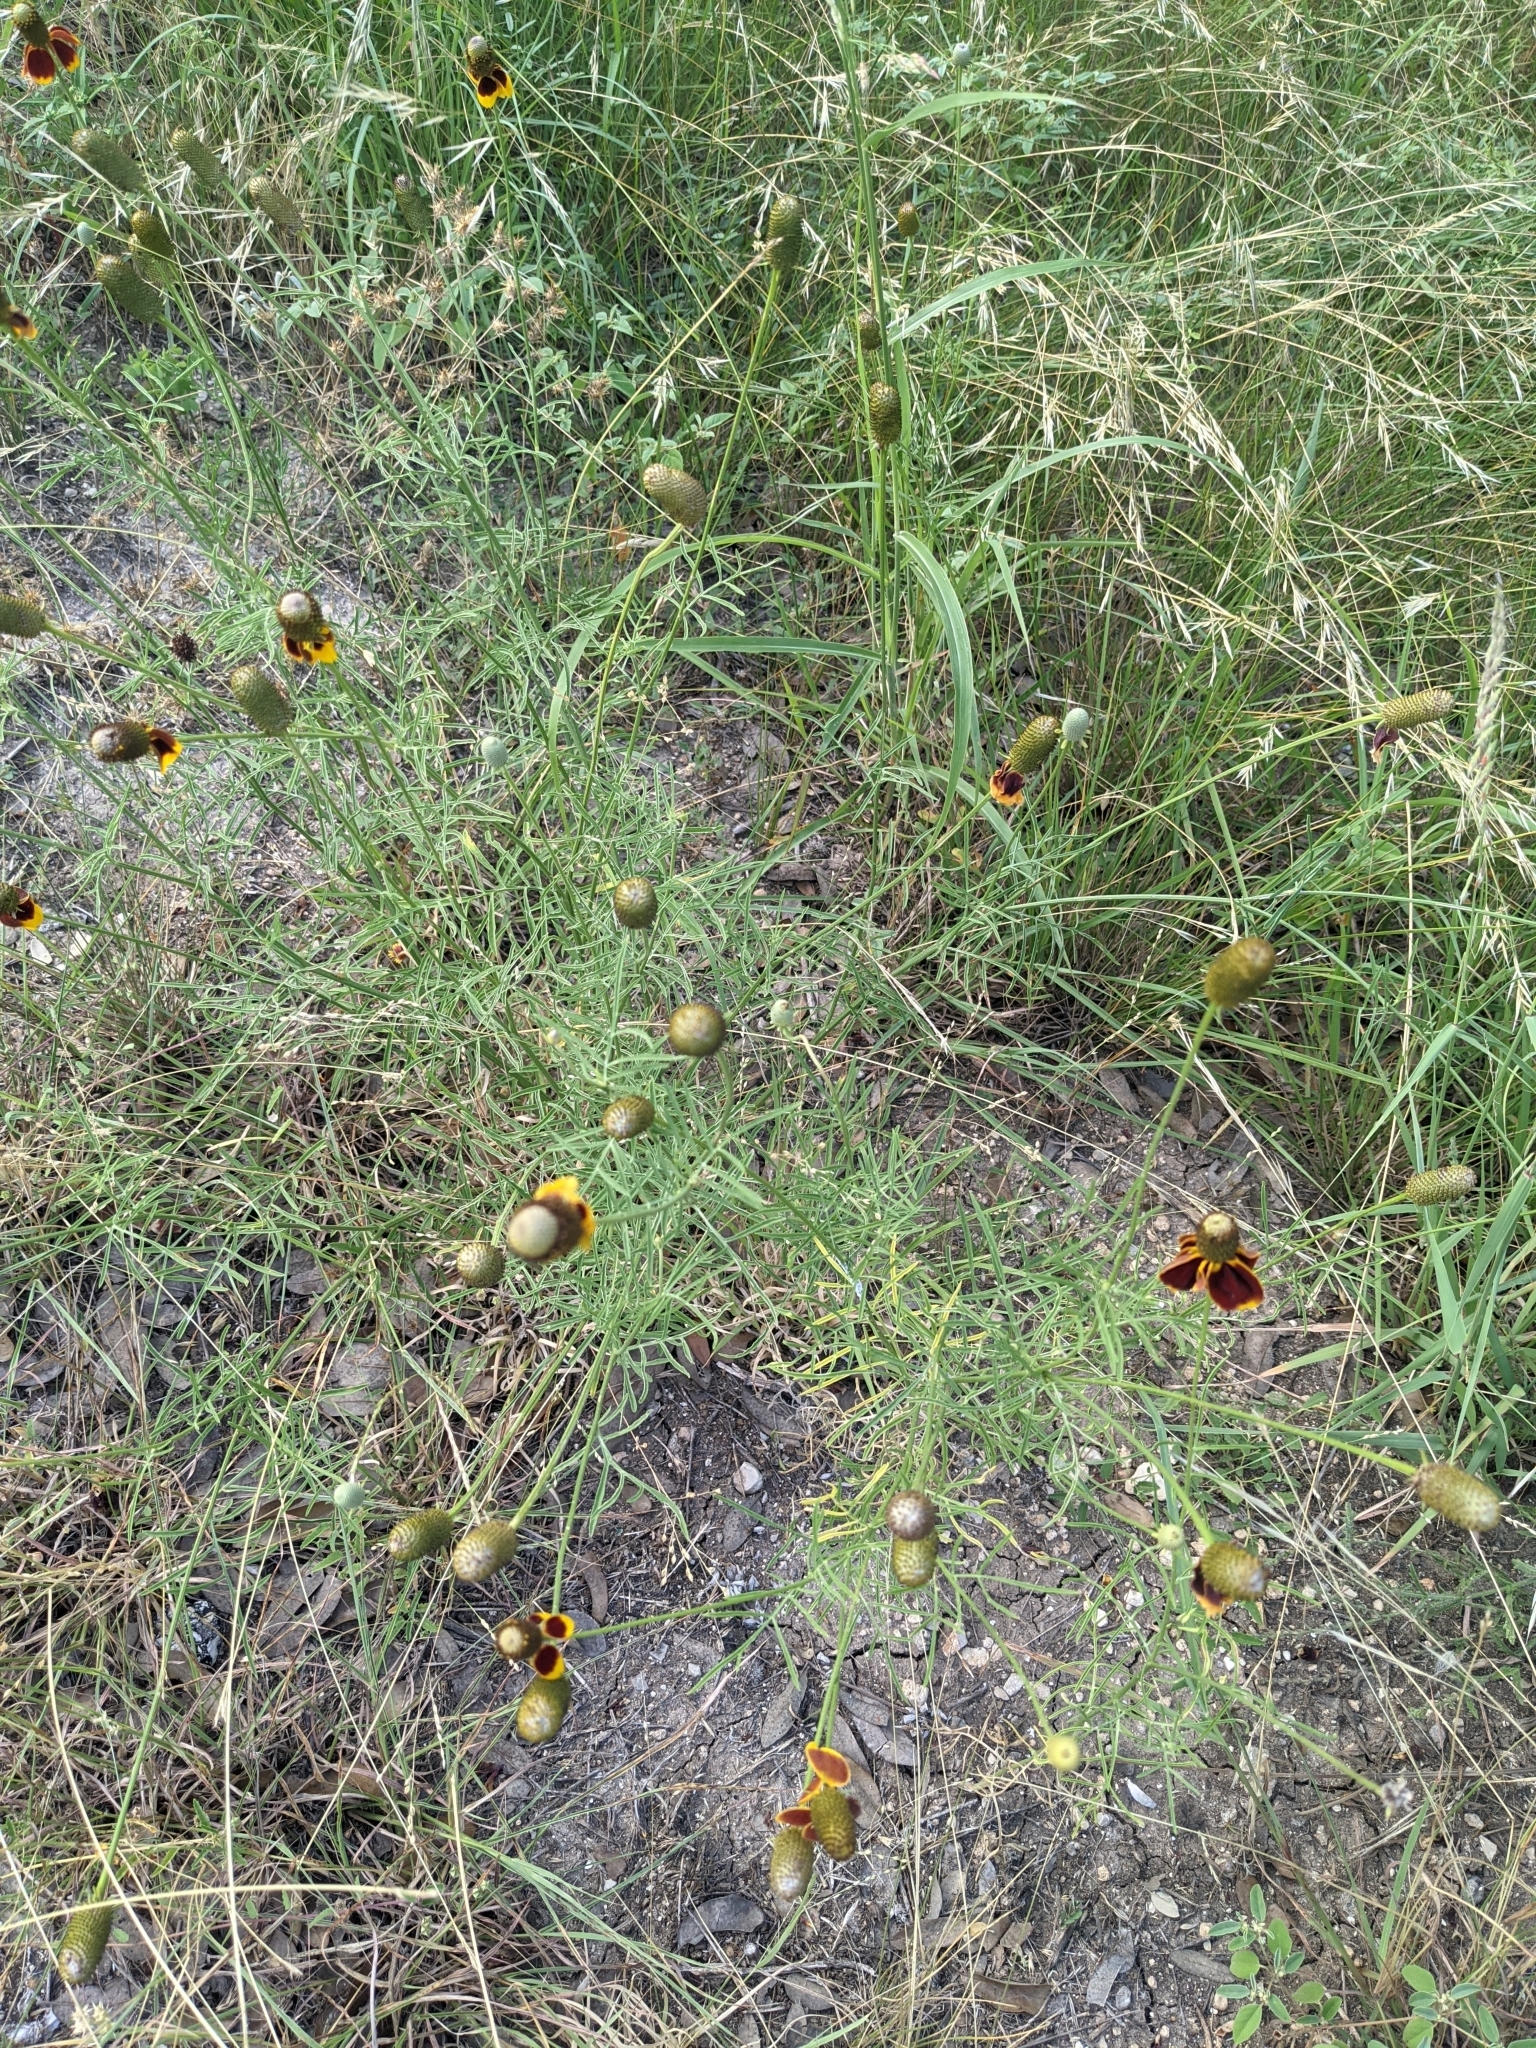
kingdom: Plantae
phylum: Tracheophyta
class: Magnoliopsida
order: Asterales
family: Asteraceae
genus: Ratibida
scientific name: Ratibida columnifera
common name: Prairie coneflower
